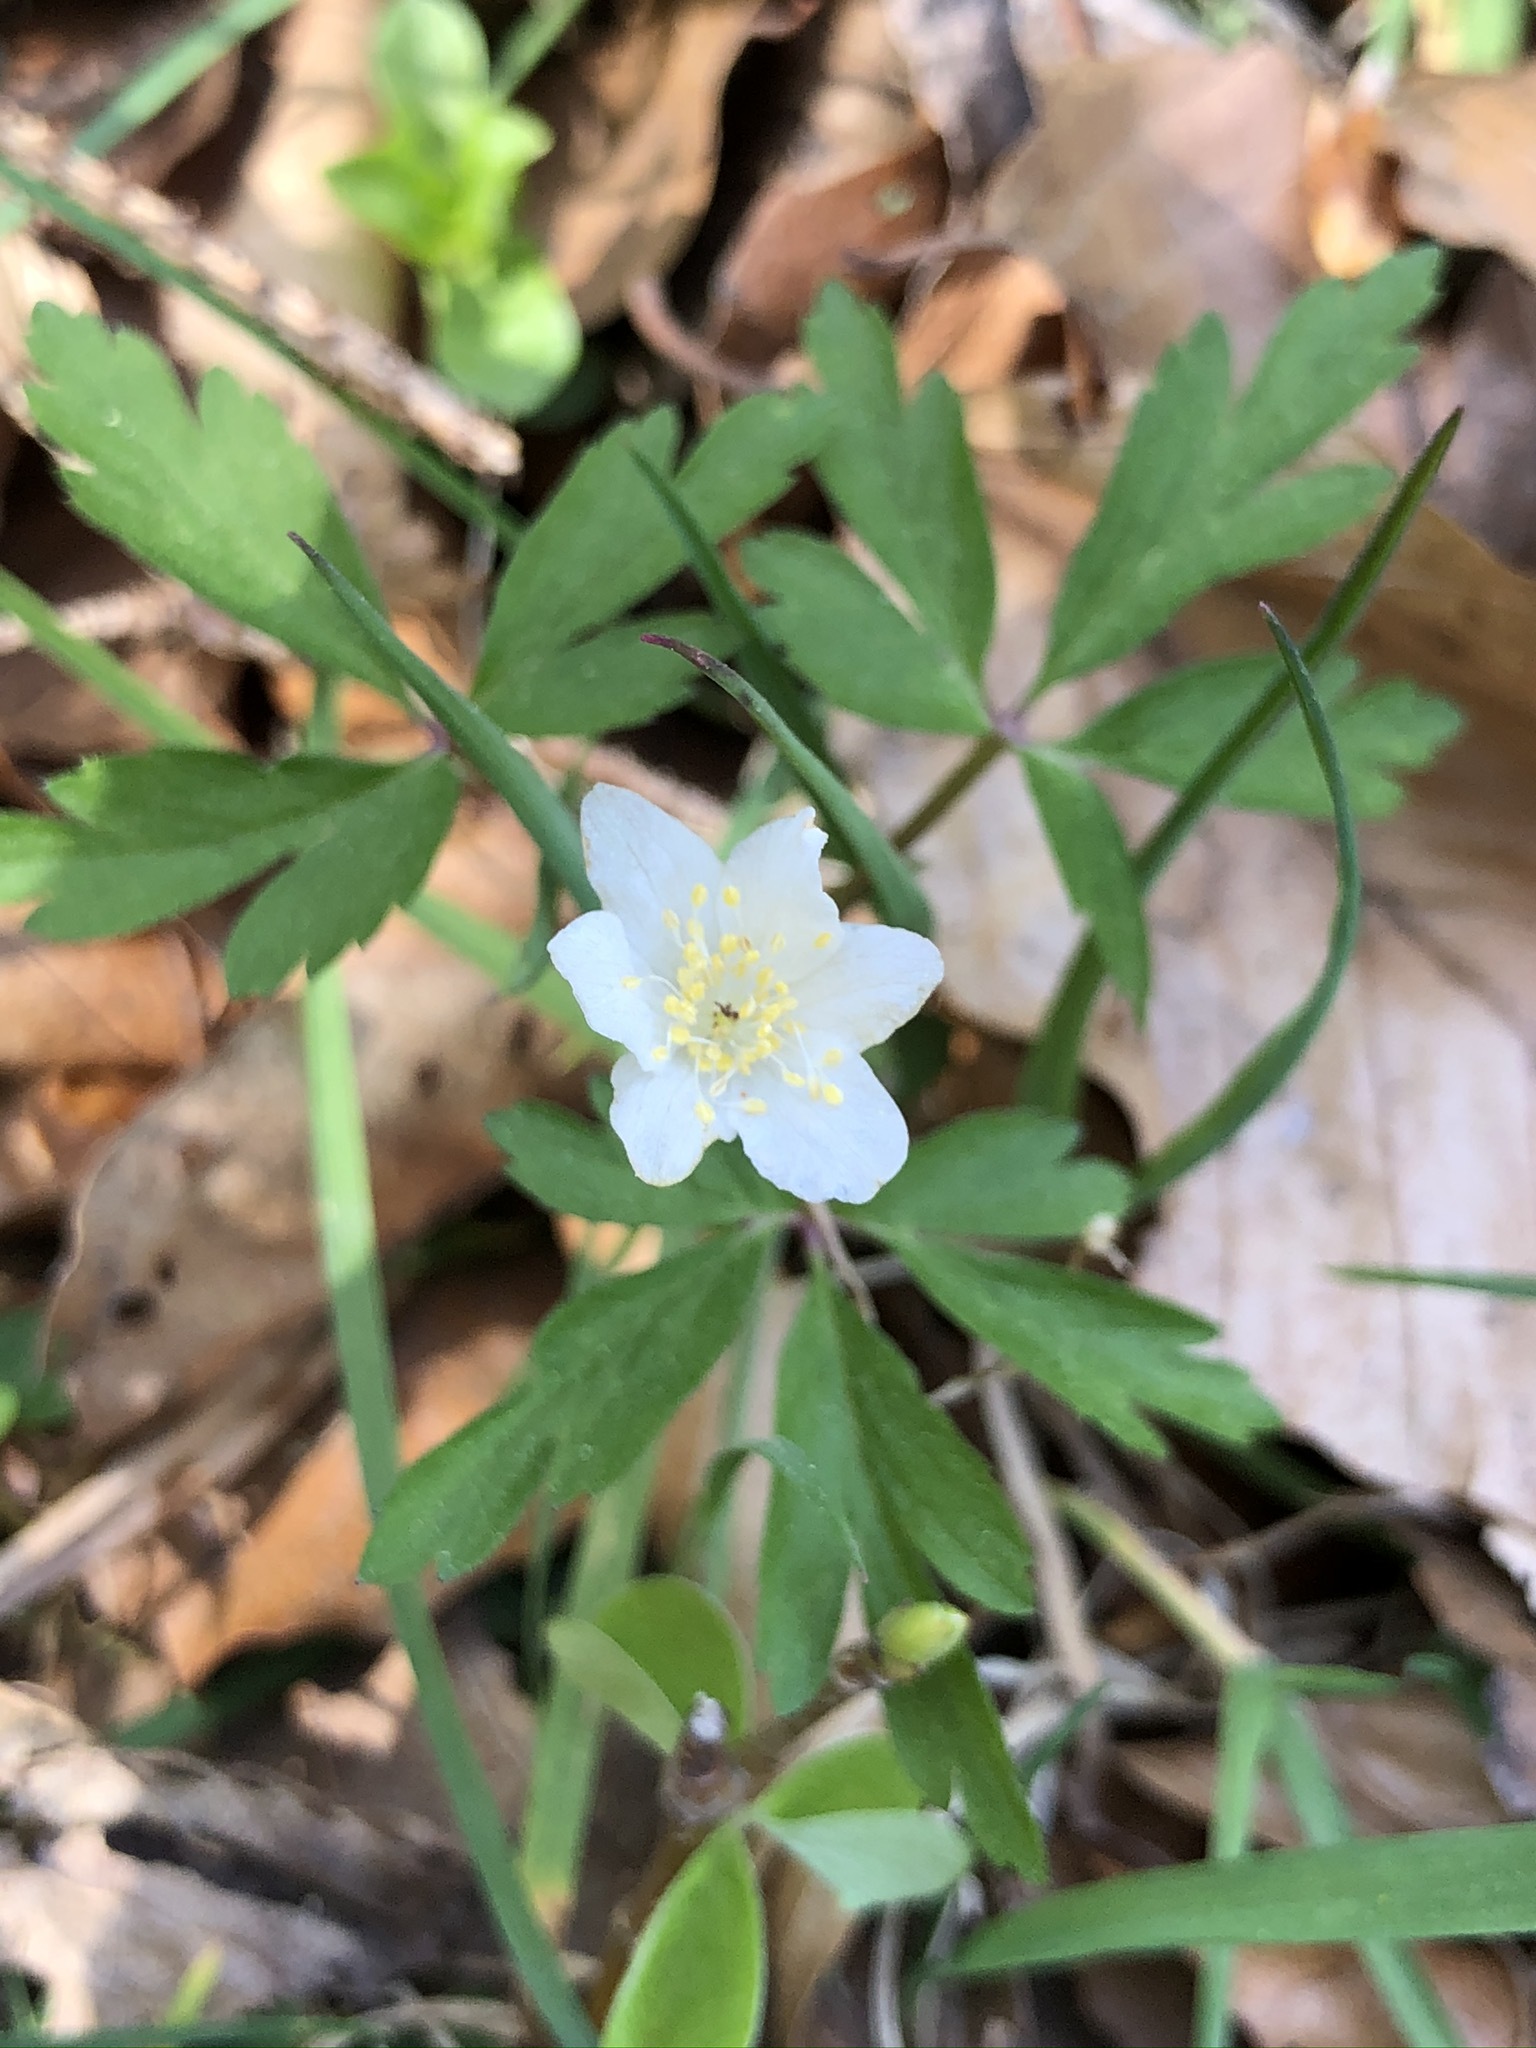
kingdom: Plantae
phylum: Tracheophyta
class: Magnoliopsida
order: Ranunculales
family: Ranunculaceae
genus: Anemone
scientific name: Anemone nemorosa
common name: Wood anemone
